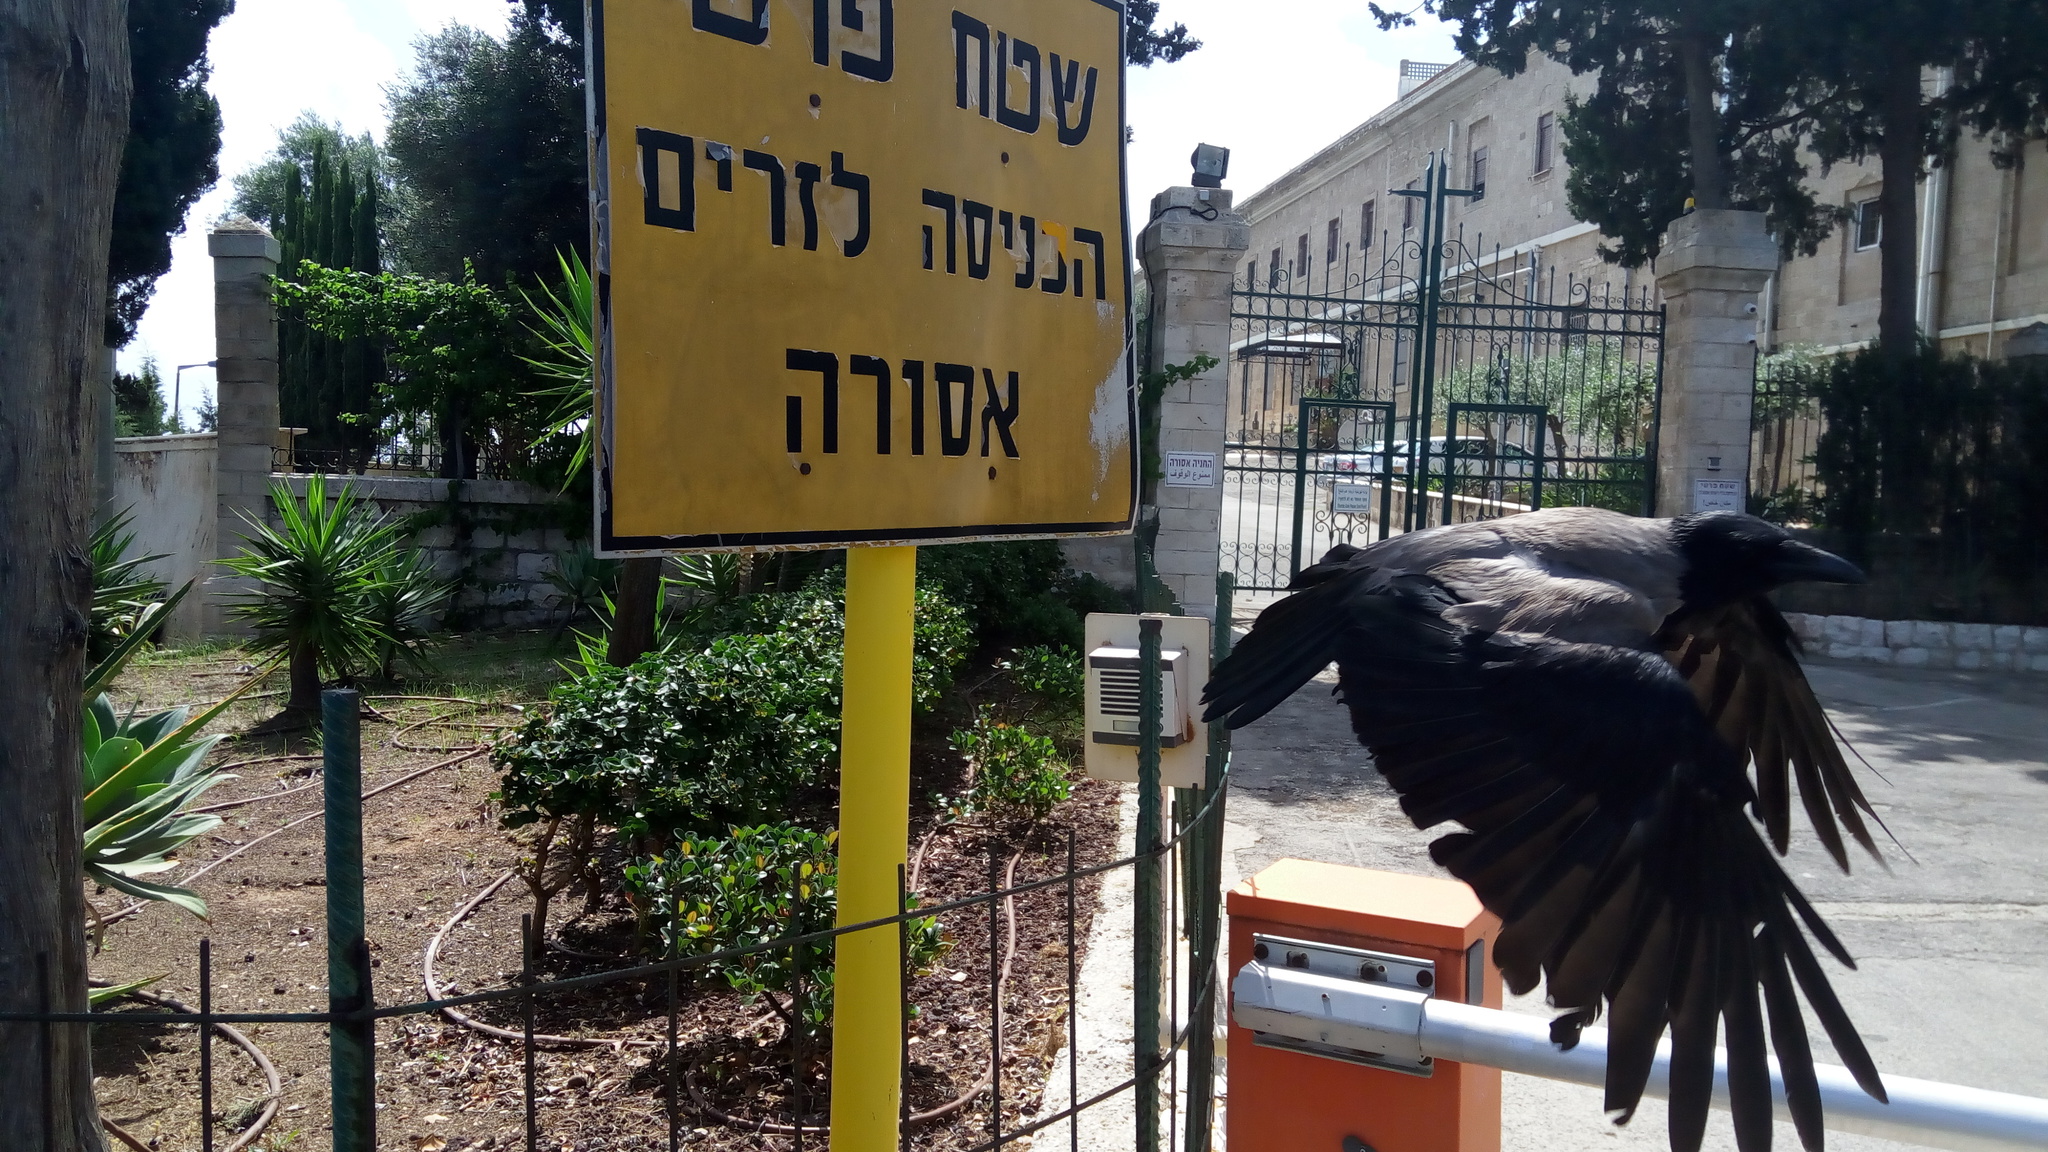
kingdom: Animalia
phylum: Chordata
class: Aves
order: Passeriformes
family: Corvidae
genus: Corvus
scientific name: Corvus cornix
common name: Hooded crow
